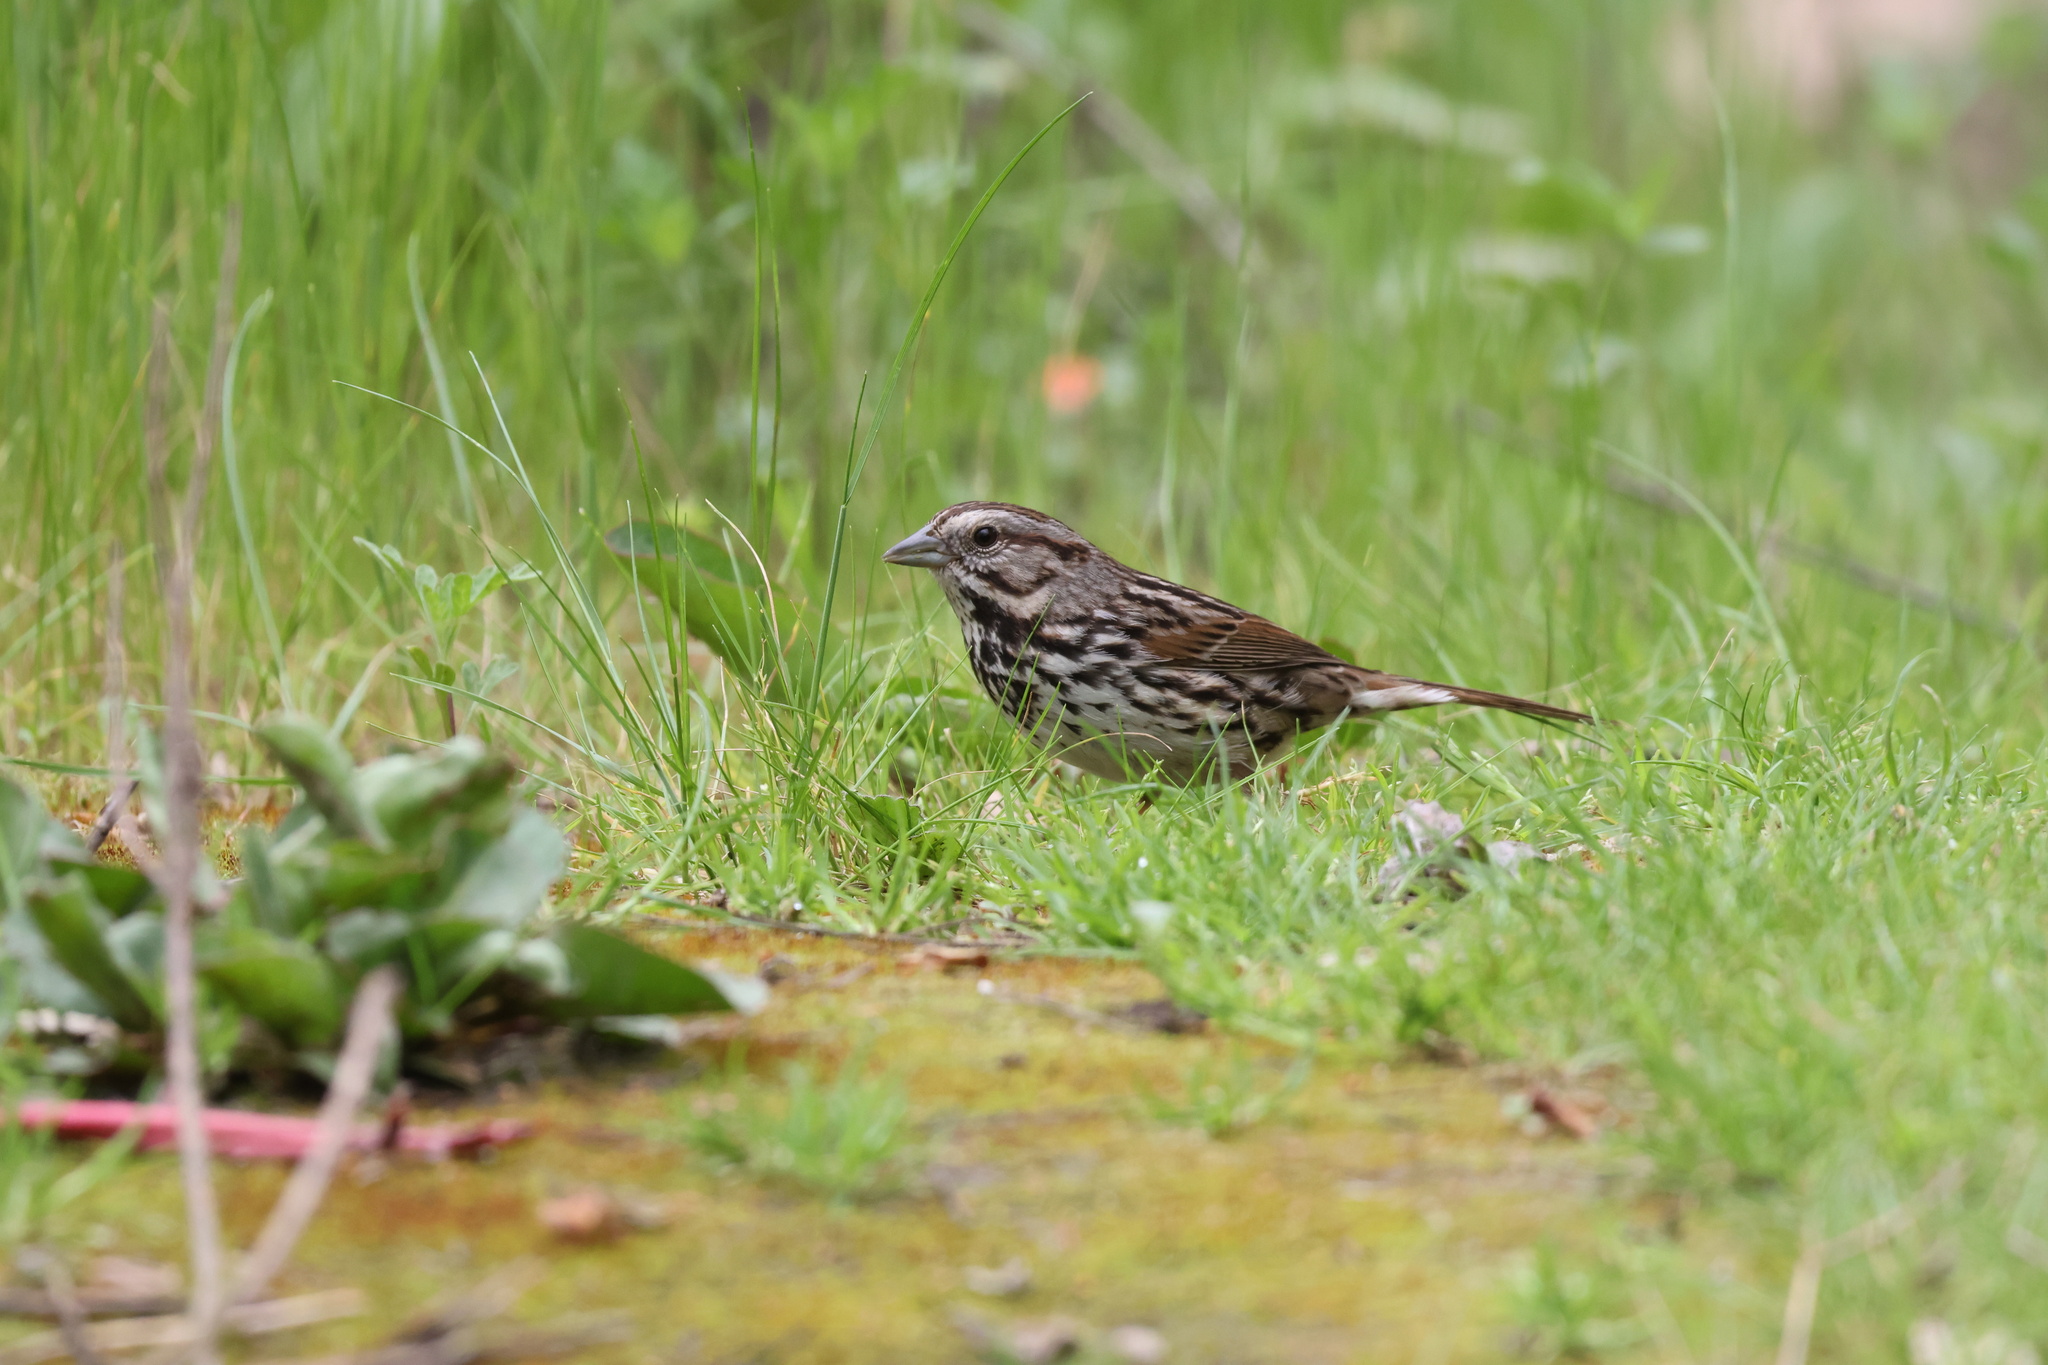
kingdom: Animalia
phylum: Chordata
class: Aves
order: Passeriformes
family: Passerellidae
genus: Melospiza
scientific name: Melospiza melodia
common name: Song sparrow
